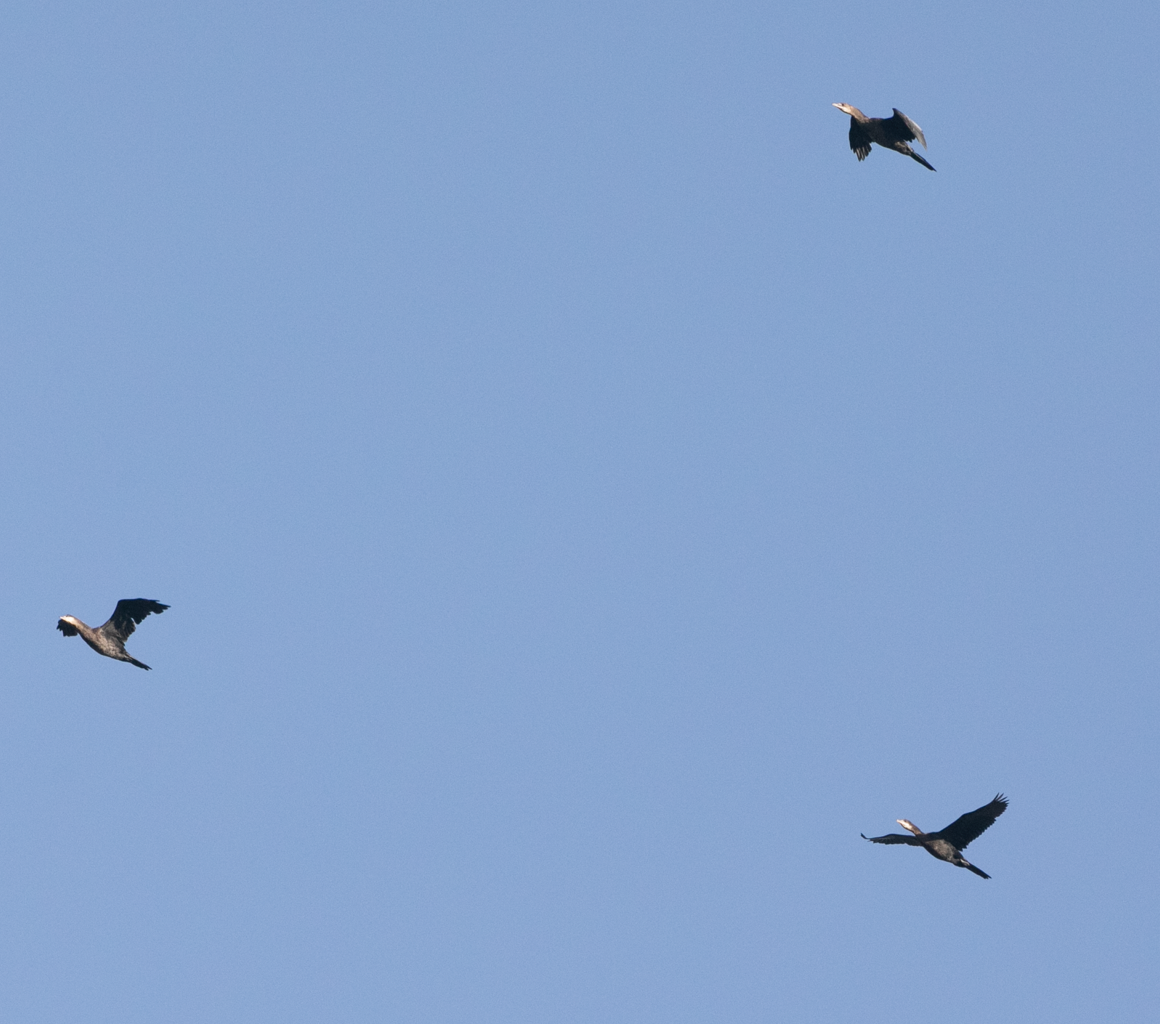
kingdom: Animalia
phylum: Chordata
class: Aves
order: Suliformes
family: Phalacrocoracidae
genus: Microcarbo
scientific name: Microcarbo pygmaeus
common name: Pygmy cormorant
